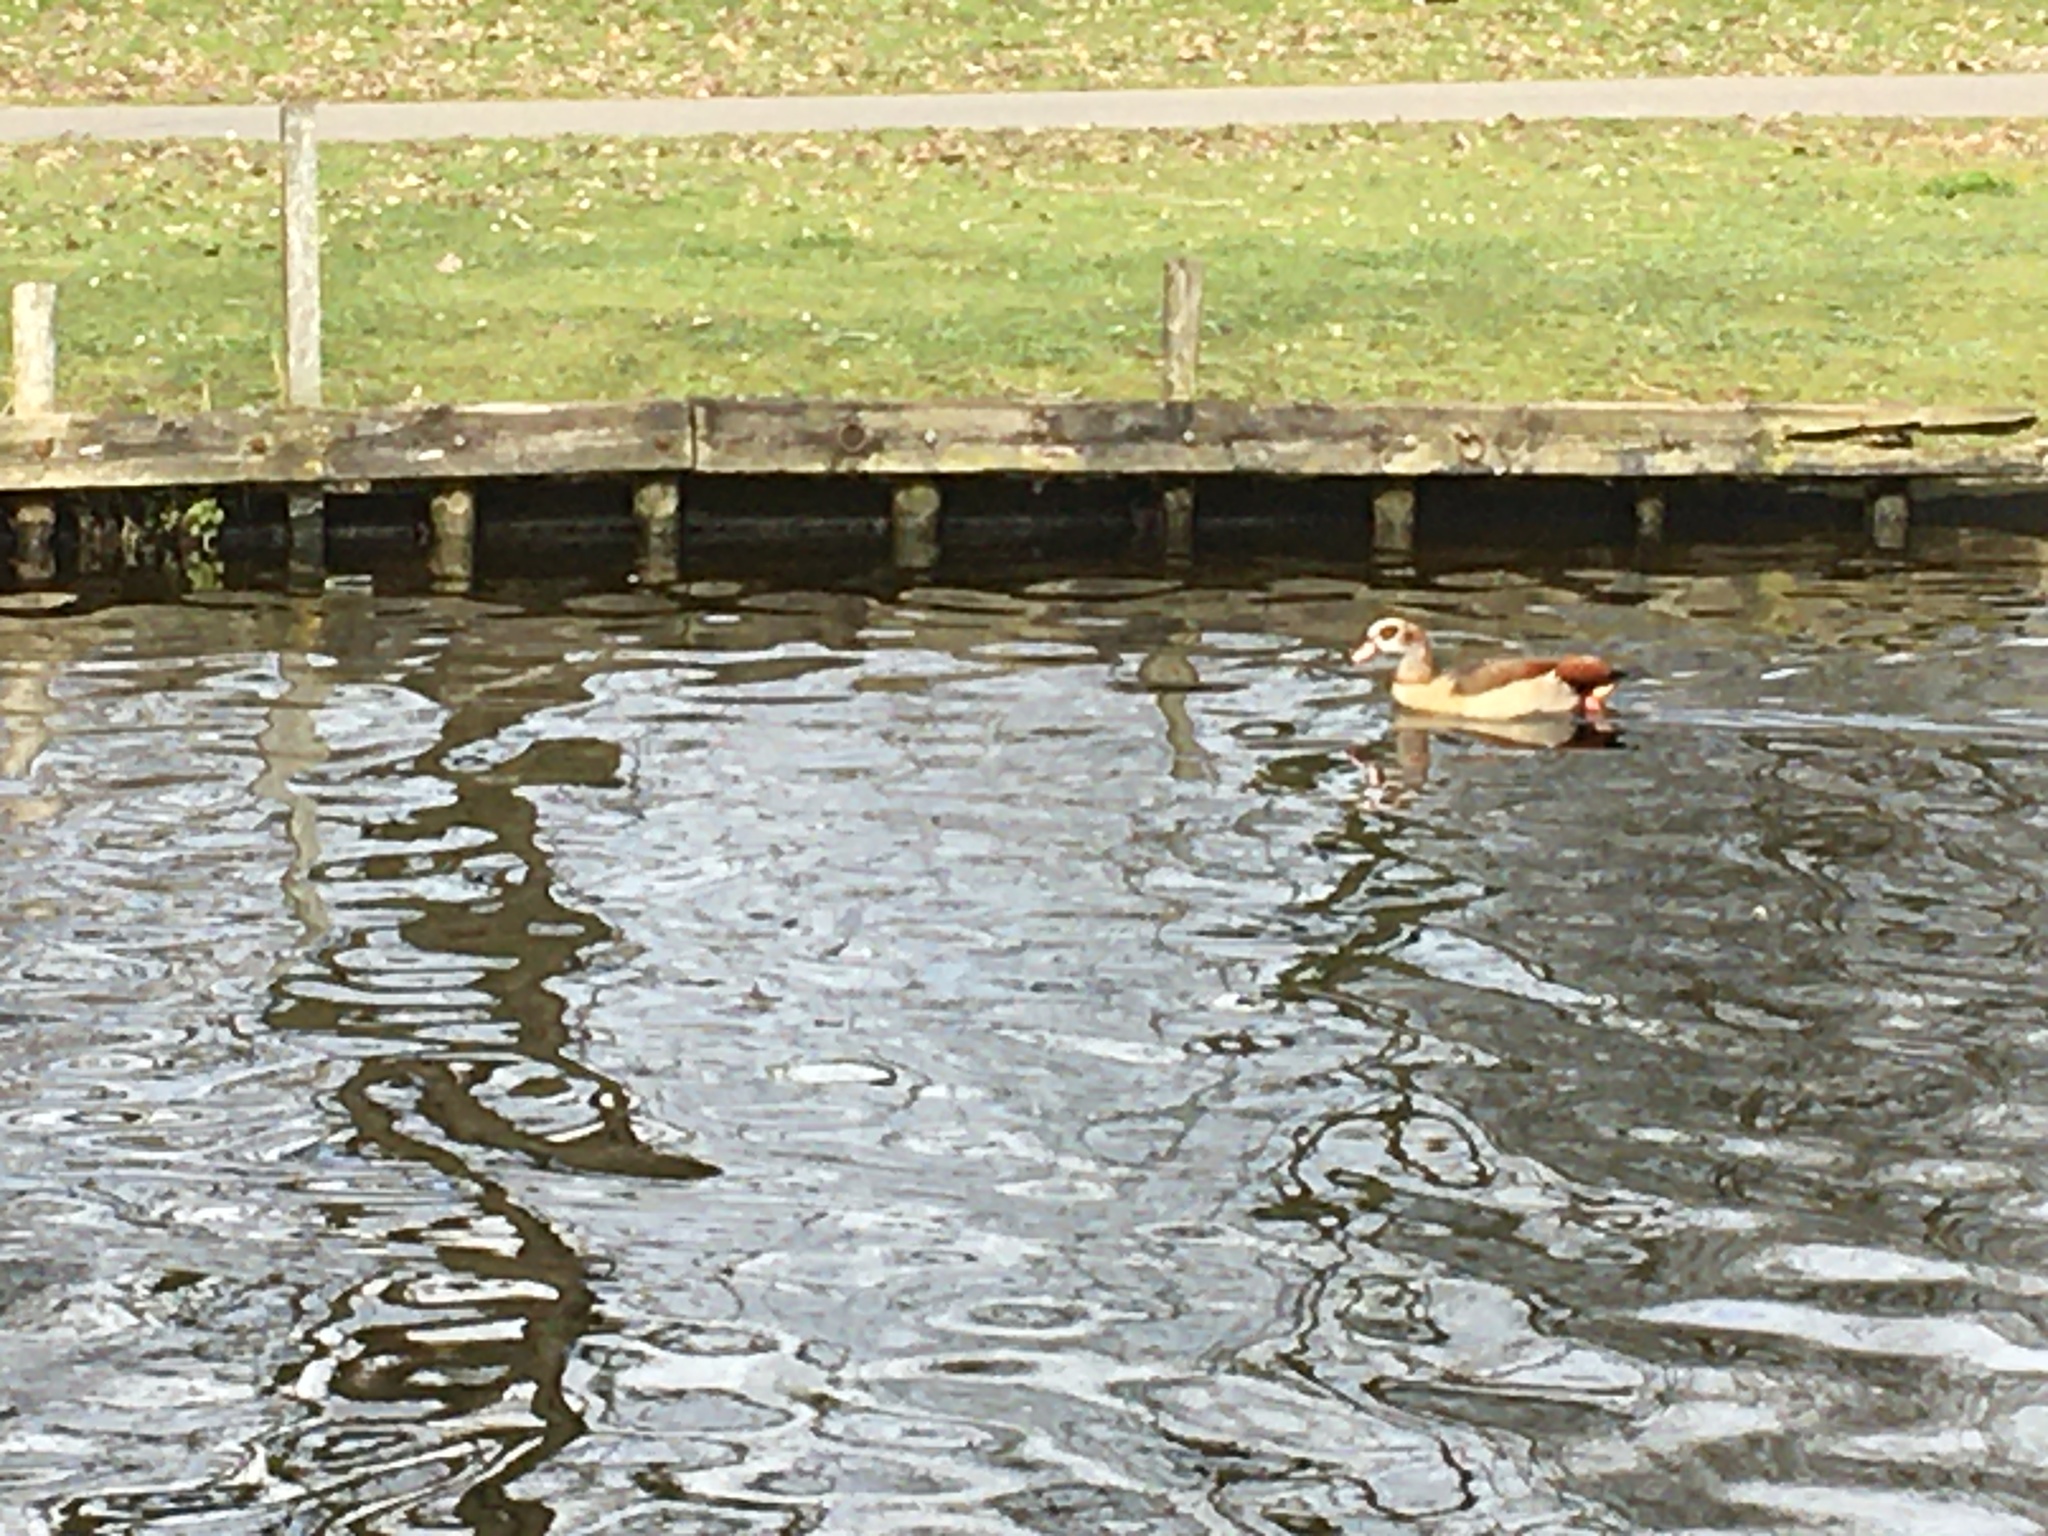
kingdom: Animalia
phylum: Chordata
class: Aves
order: Anseriformes
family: Anatidae
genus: Alopochen
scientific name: Alopochen aegyptiaca
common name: Egyptian goose
